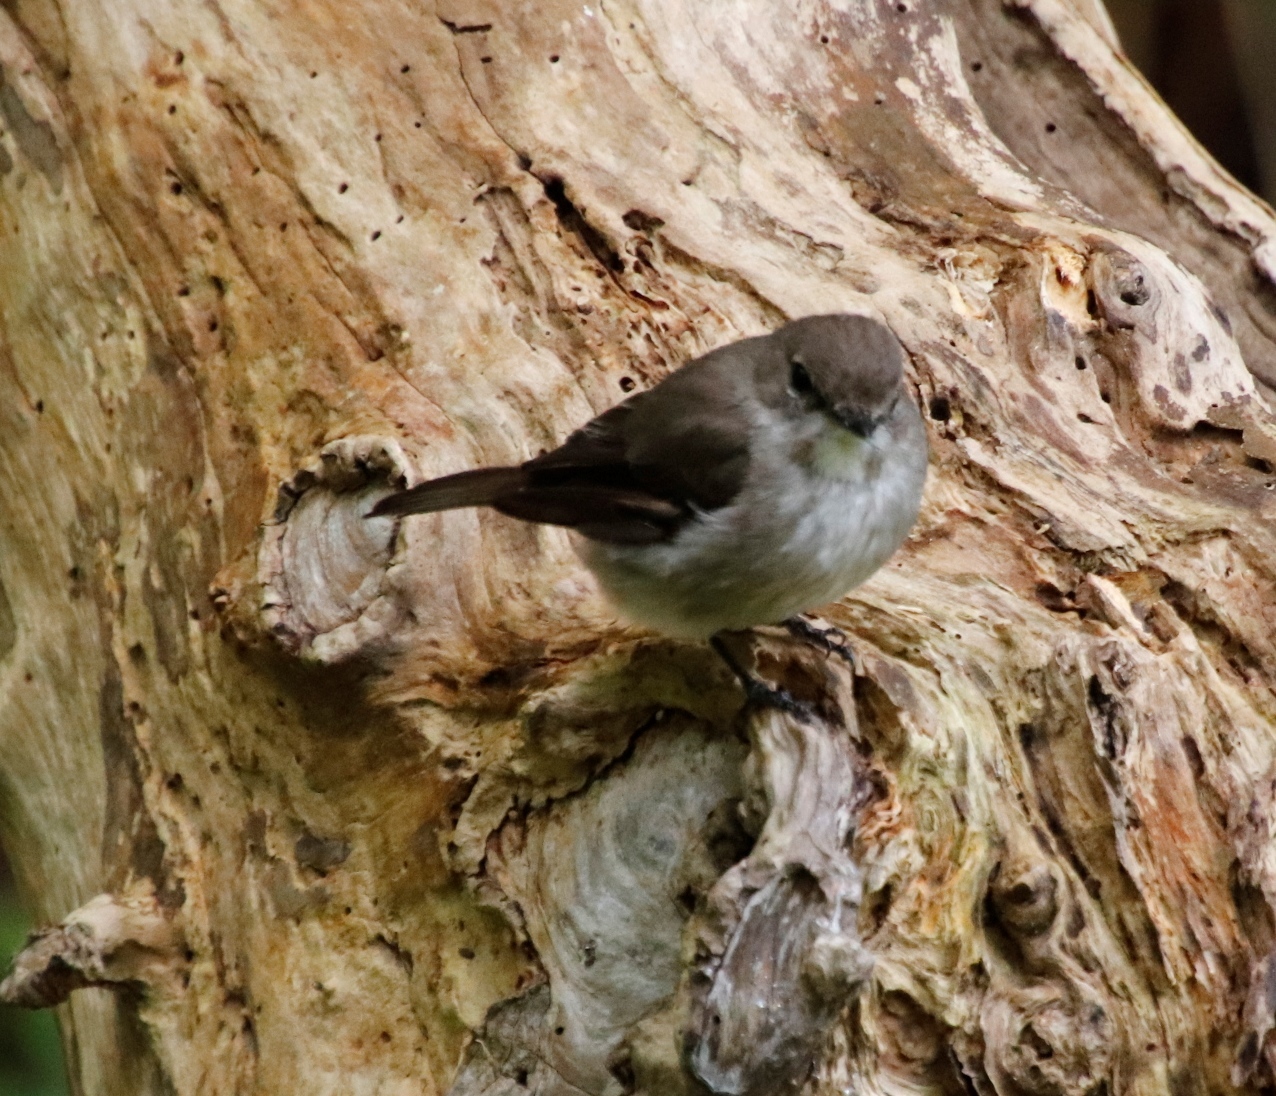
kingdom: Animalia
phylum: Chordata
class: Aves
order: Passeriformes
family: Muscicapidae
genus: Muscicapa
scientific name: Muscicapa adusta
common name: African dusky flycatcher
